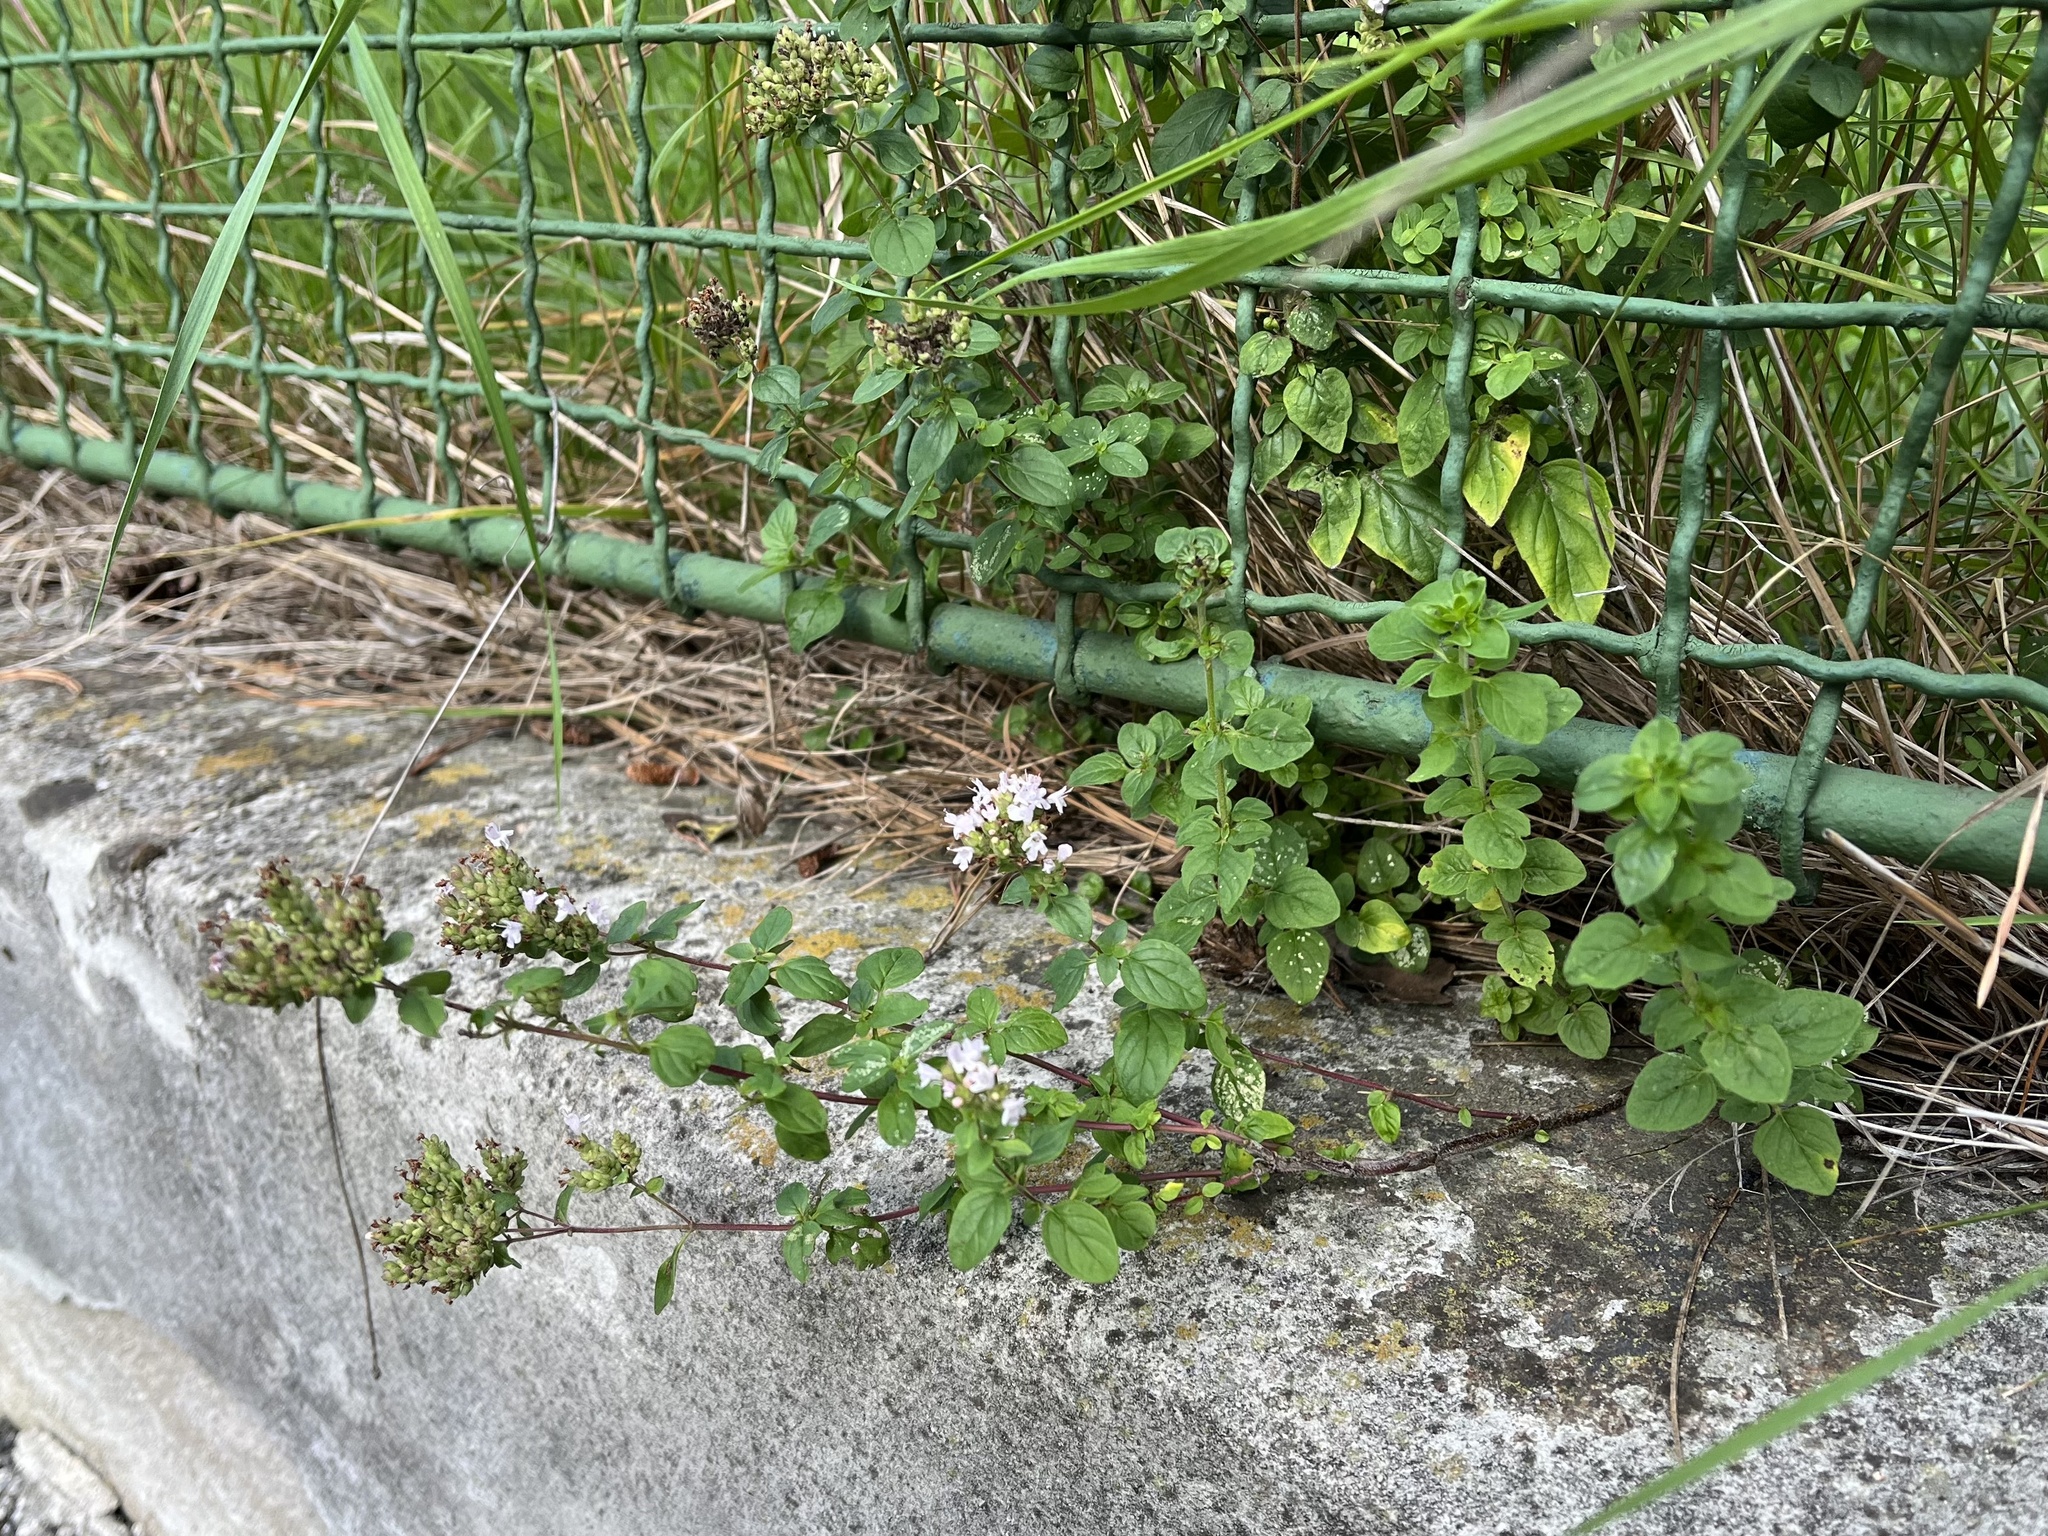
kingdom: Plantae
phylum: Tracheophyta
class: Magnoliopsida
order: Lamiales
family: Lamiaceae
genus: Origanum
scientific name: Origanum vulgare
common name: Wild marjoram
